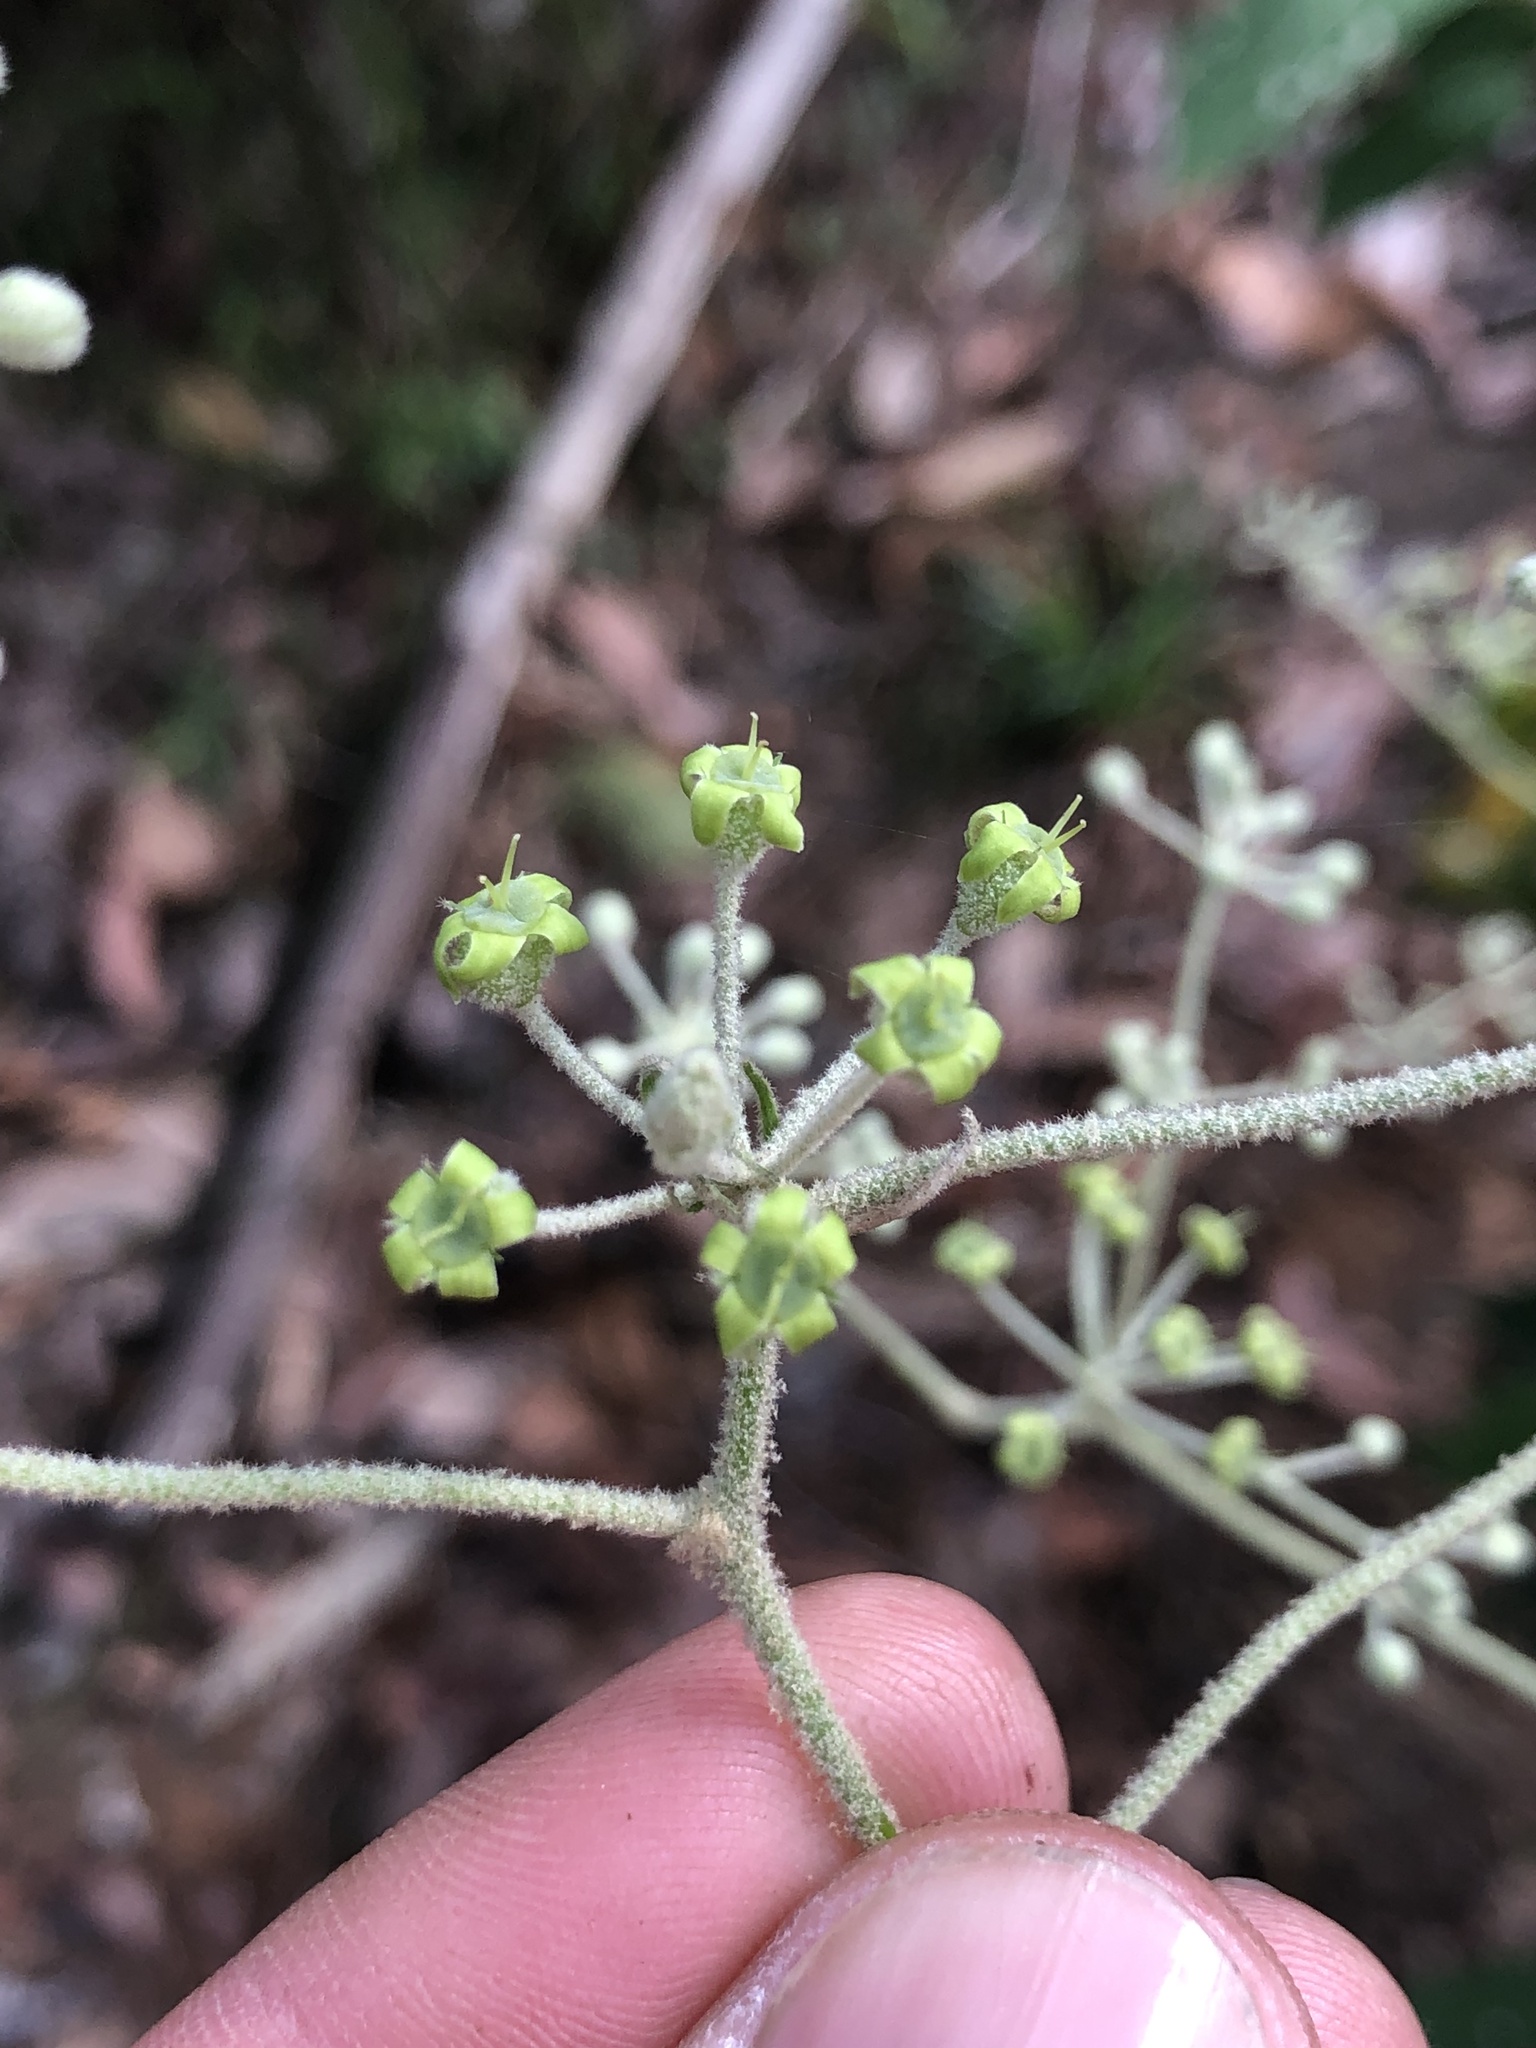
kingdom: Plantae
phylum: Tracheophyta
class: Magnoliopsida
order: Apiales
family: Araliaceae
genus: Astrotricha
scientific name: Astrotricha latifolia
